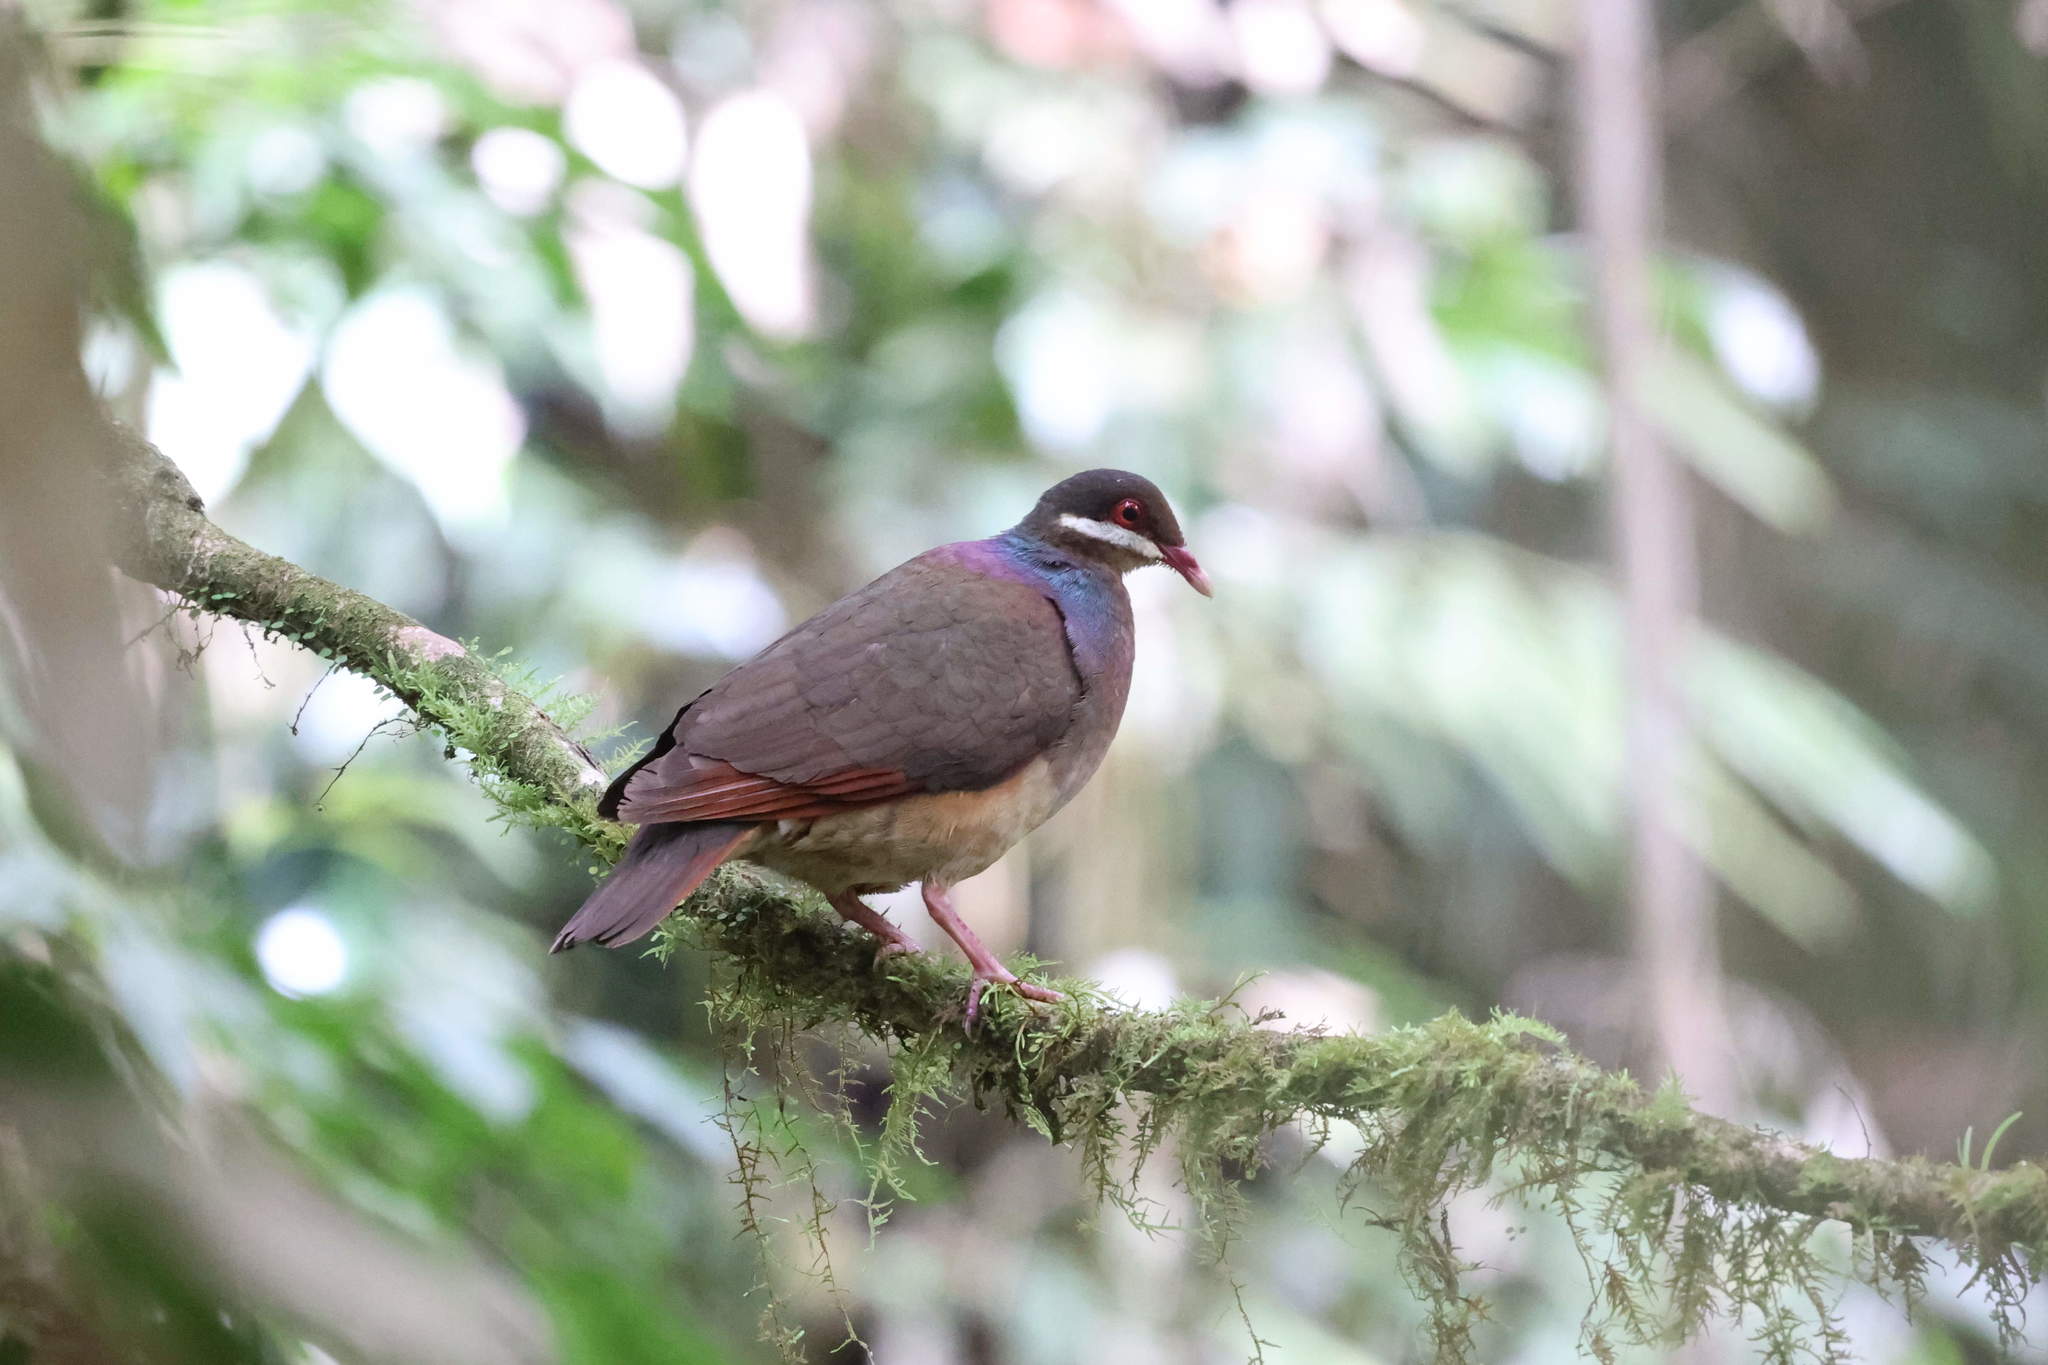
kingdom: Animalia
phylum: Chordata
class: Aves
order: Columbiformes
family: Columbidae
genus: Geotrygon
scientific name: Geotrygon mystacea
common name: Bridled quail-dove
